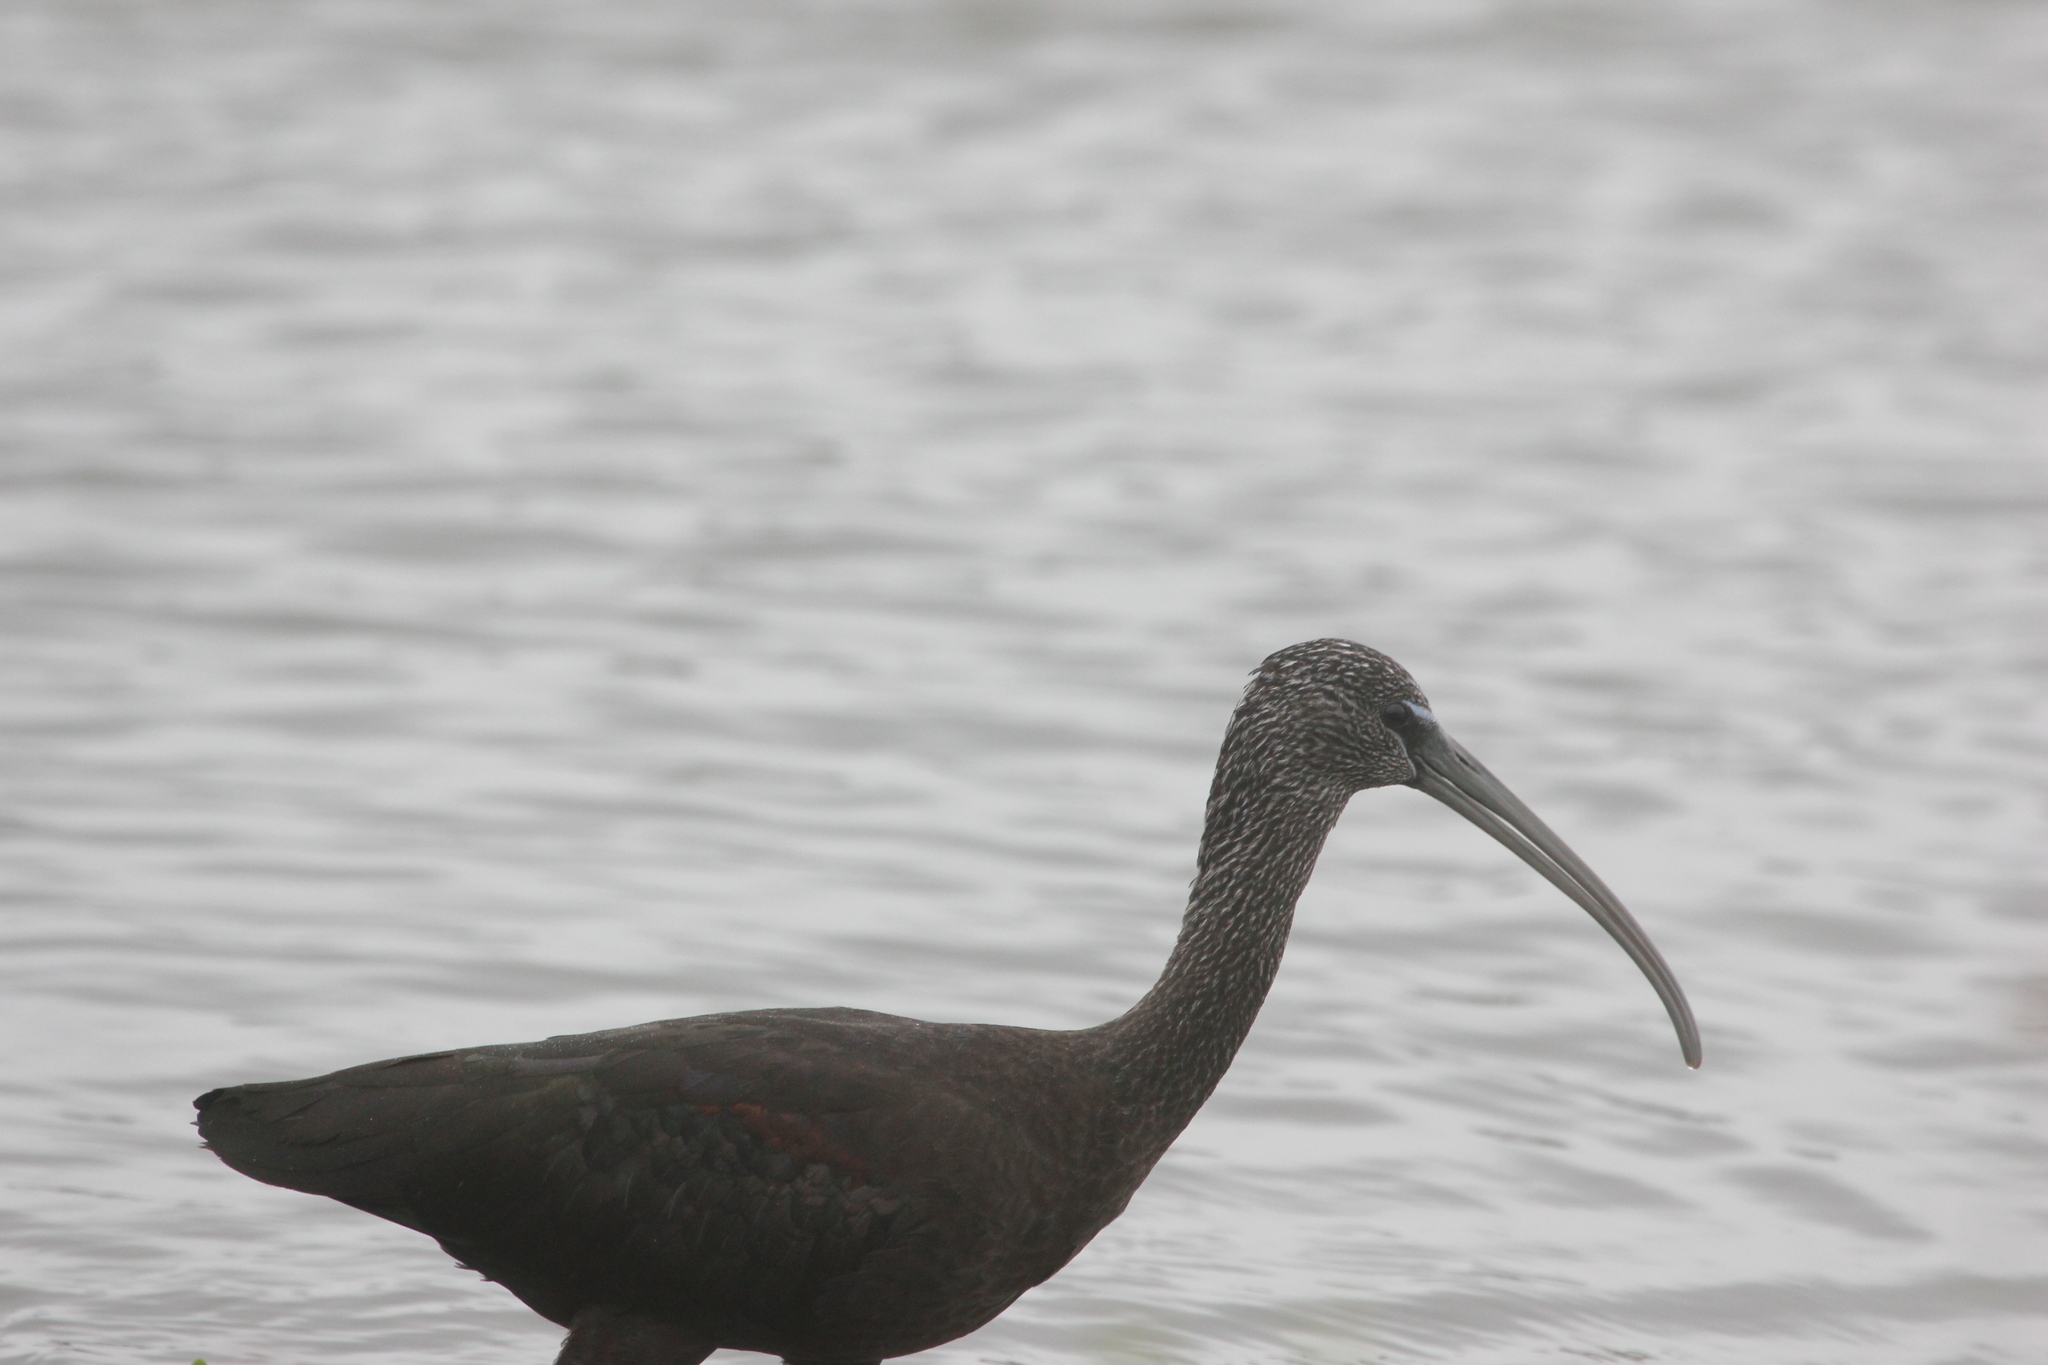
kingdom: Animalia
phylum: Chordata
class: Aves
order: Pelecaniformes
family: Threskiornithidae
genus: Plegadis
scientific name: Plegadis falcinellus
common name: Glossy ibis
